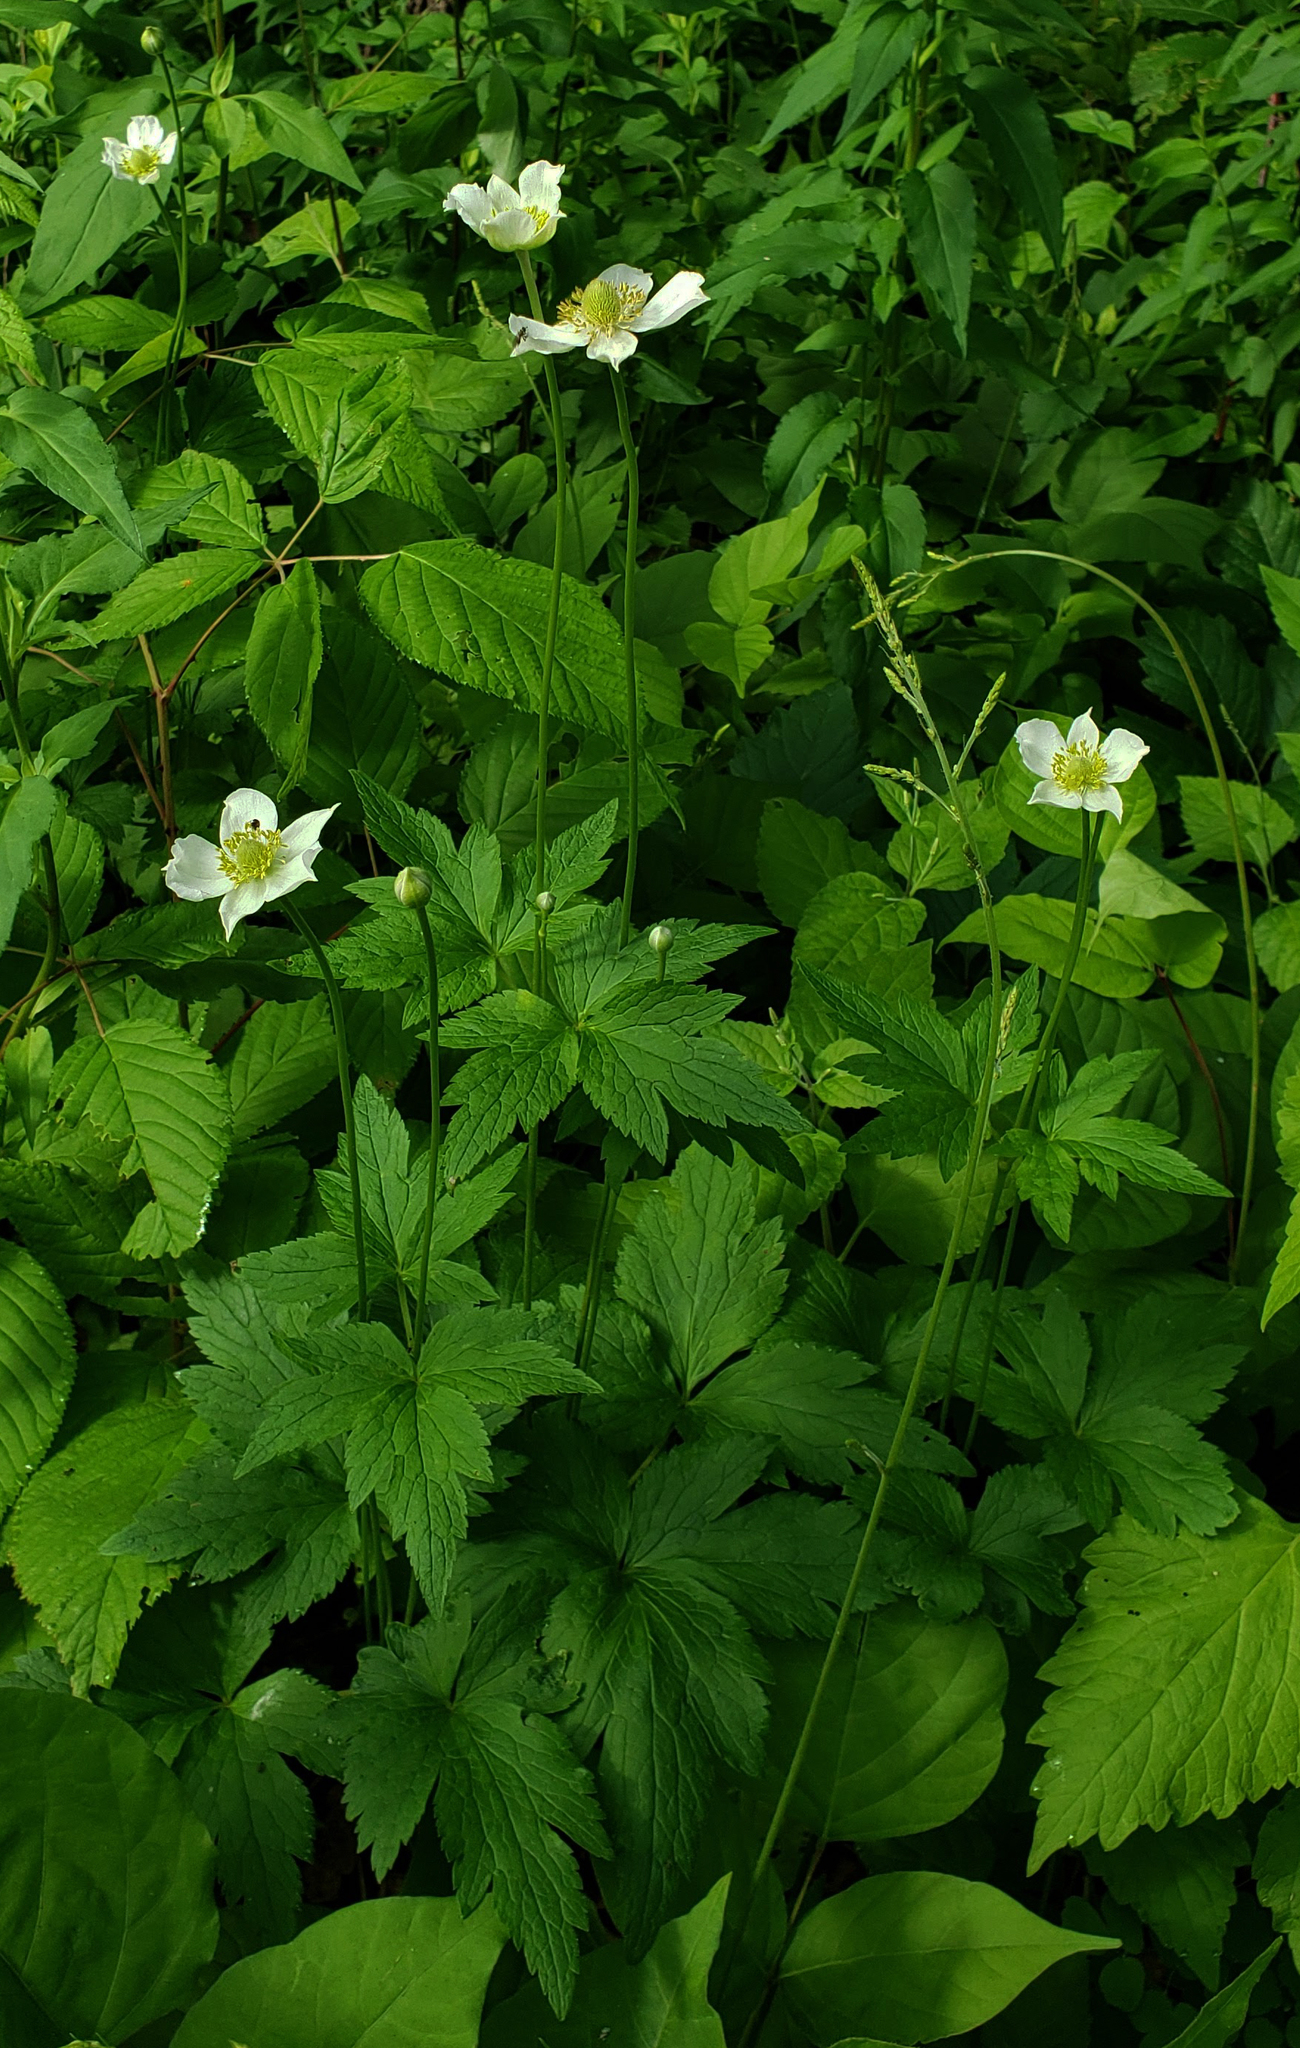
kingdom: Plantae
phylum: Tracheophyta
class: Magnoliopsida
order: Ranunculales
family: Ranunculaceae
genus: Anemone
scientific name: Anemone virginiana
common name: Tall anemone
